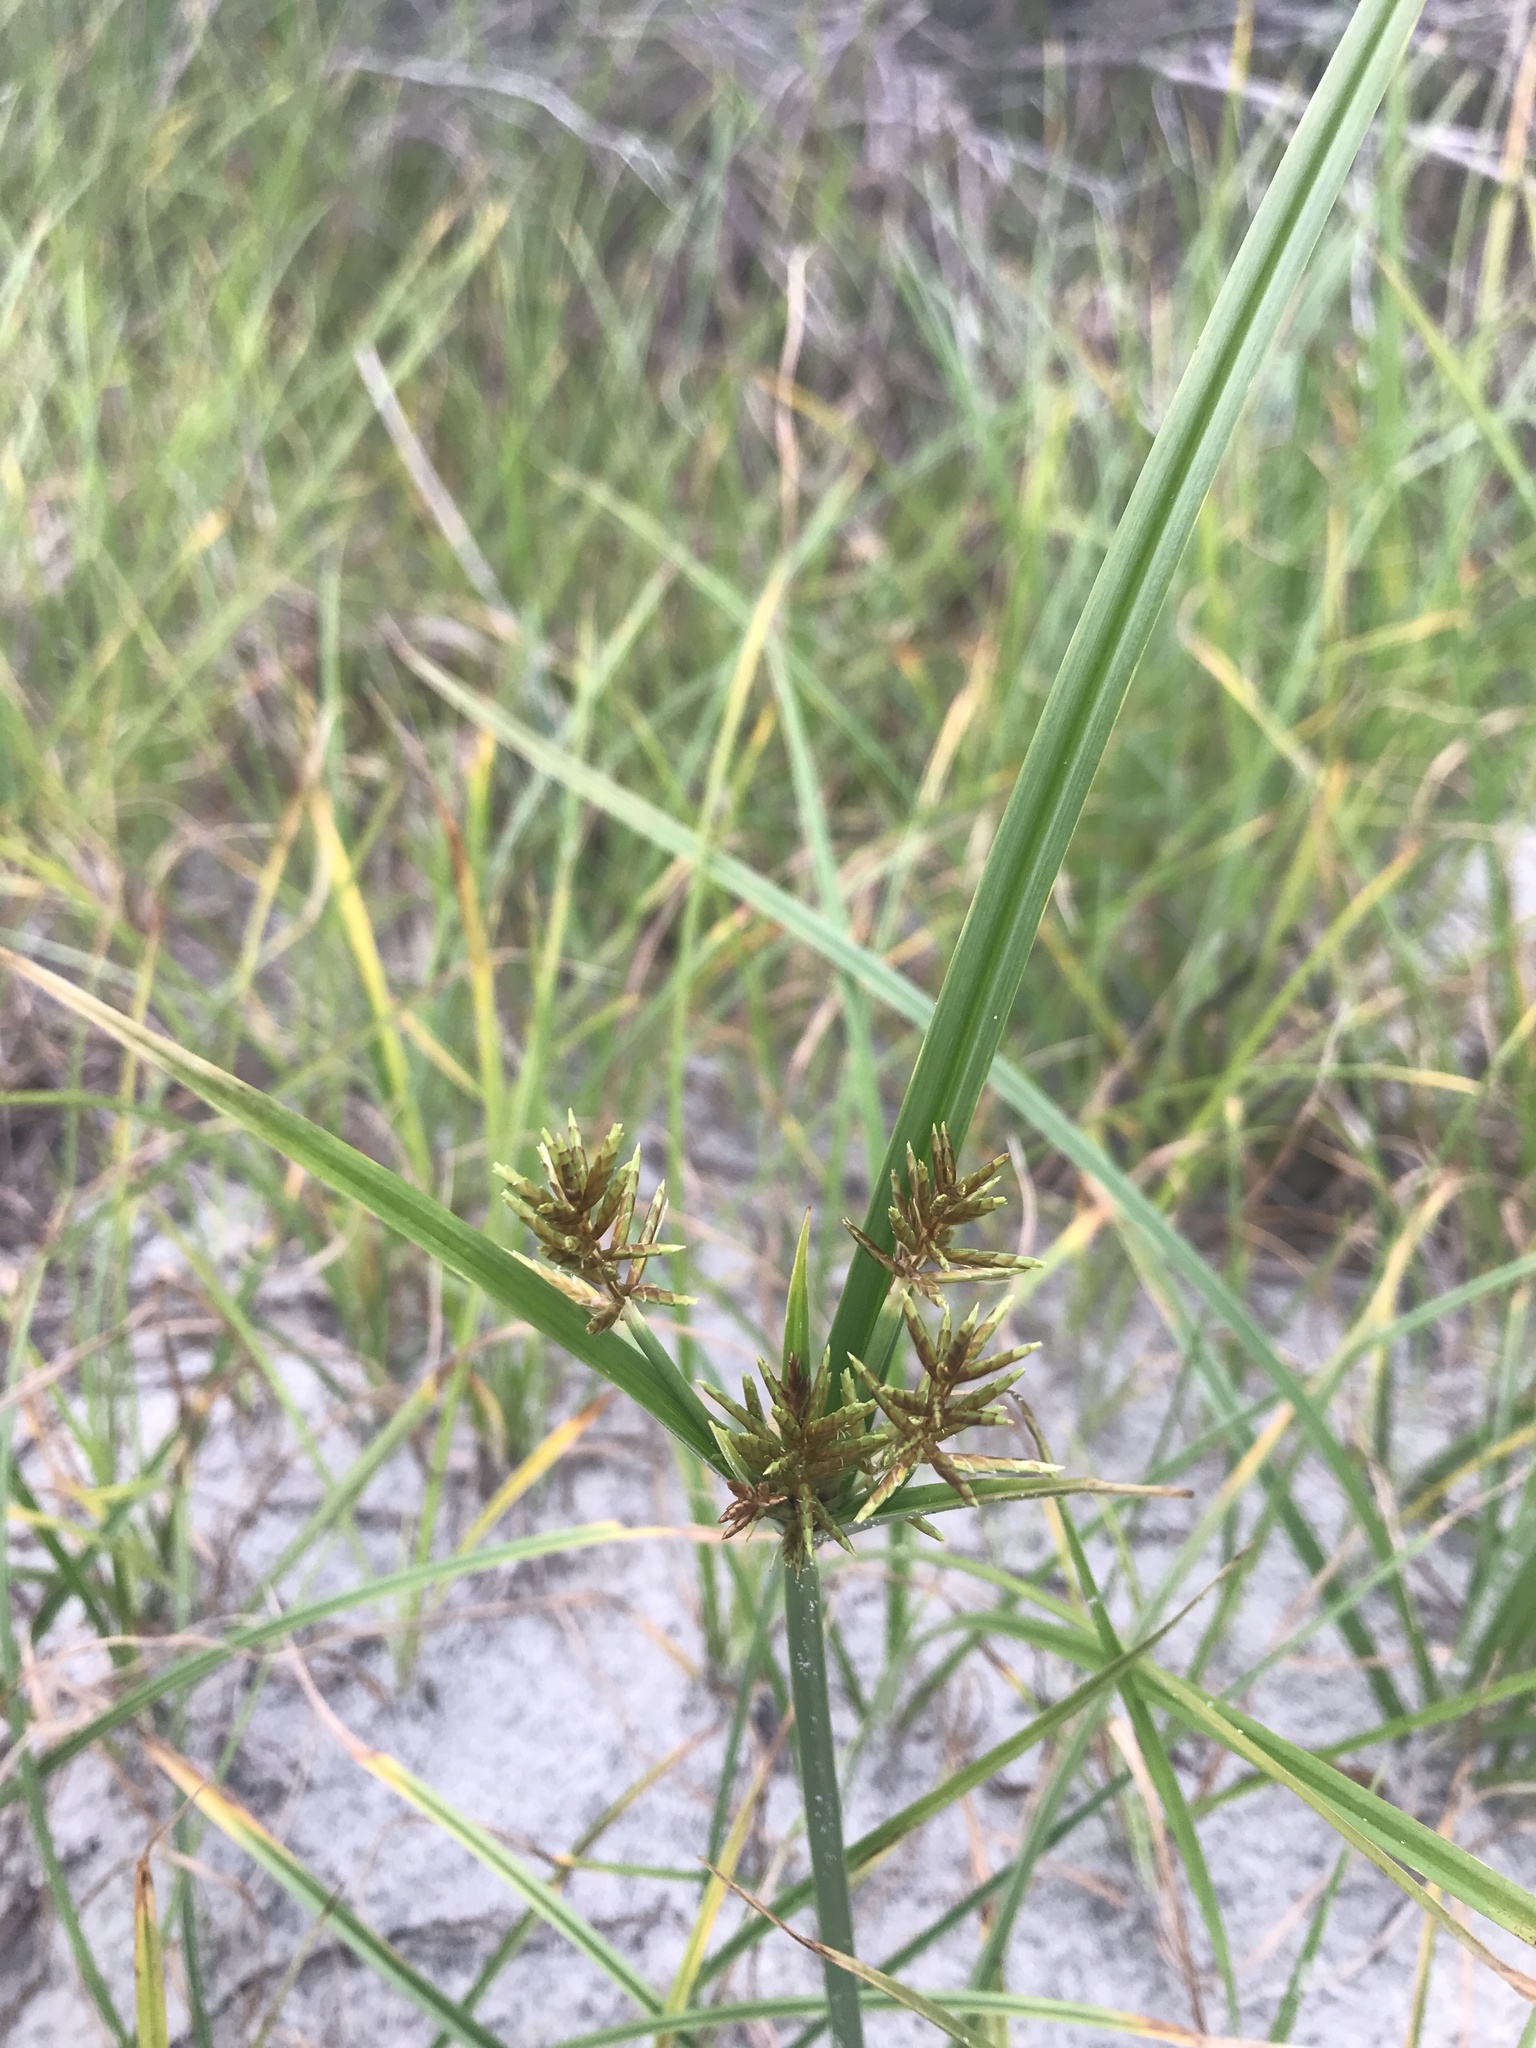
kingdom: Plantae
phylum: Tracheophyta
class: Liliopsida
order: Poales
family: Cyperaceae
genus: Cyperus
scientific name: Cyperus esculentus
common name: Yellow nutsedge
